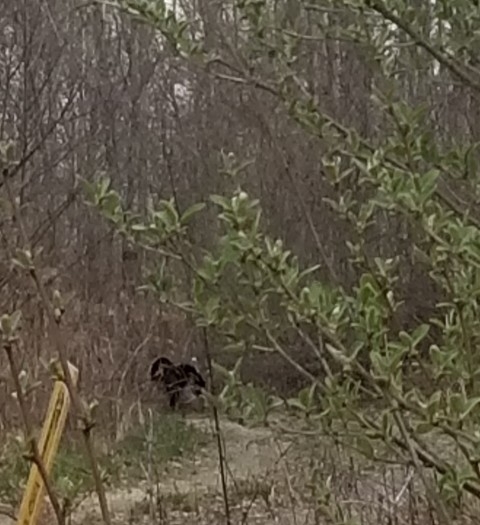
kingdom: Animalia
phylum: Chordata
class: Aves
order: Galliformes
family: Phasianidae
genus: Meleagris
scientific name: Meleagris gallopavo
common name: Wild turkey
